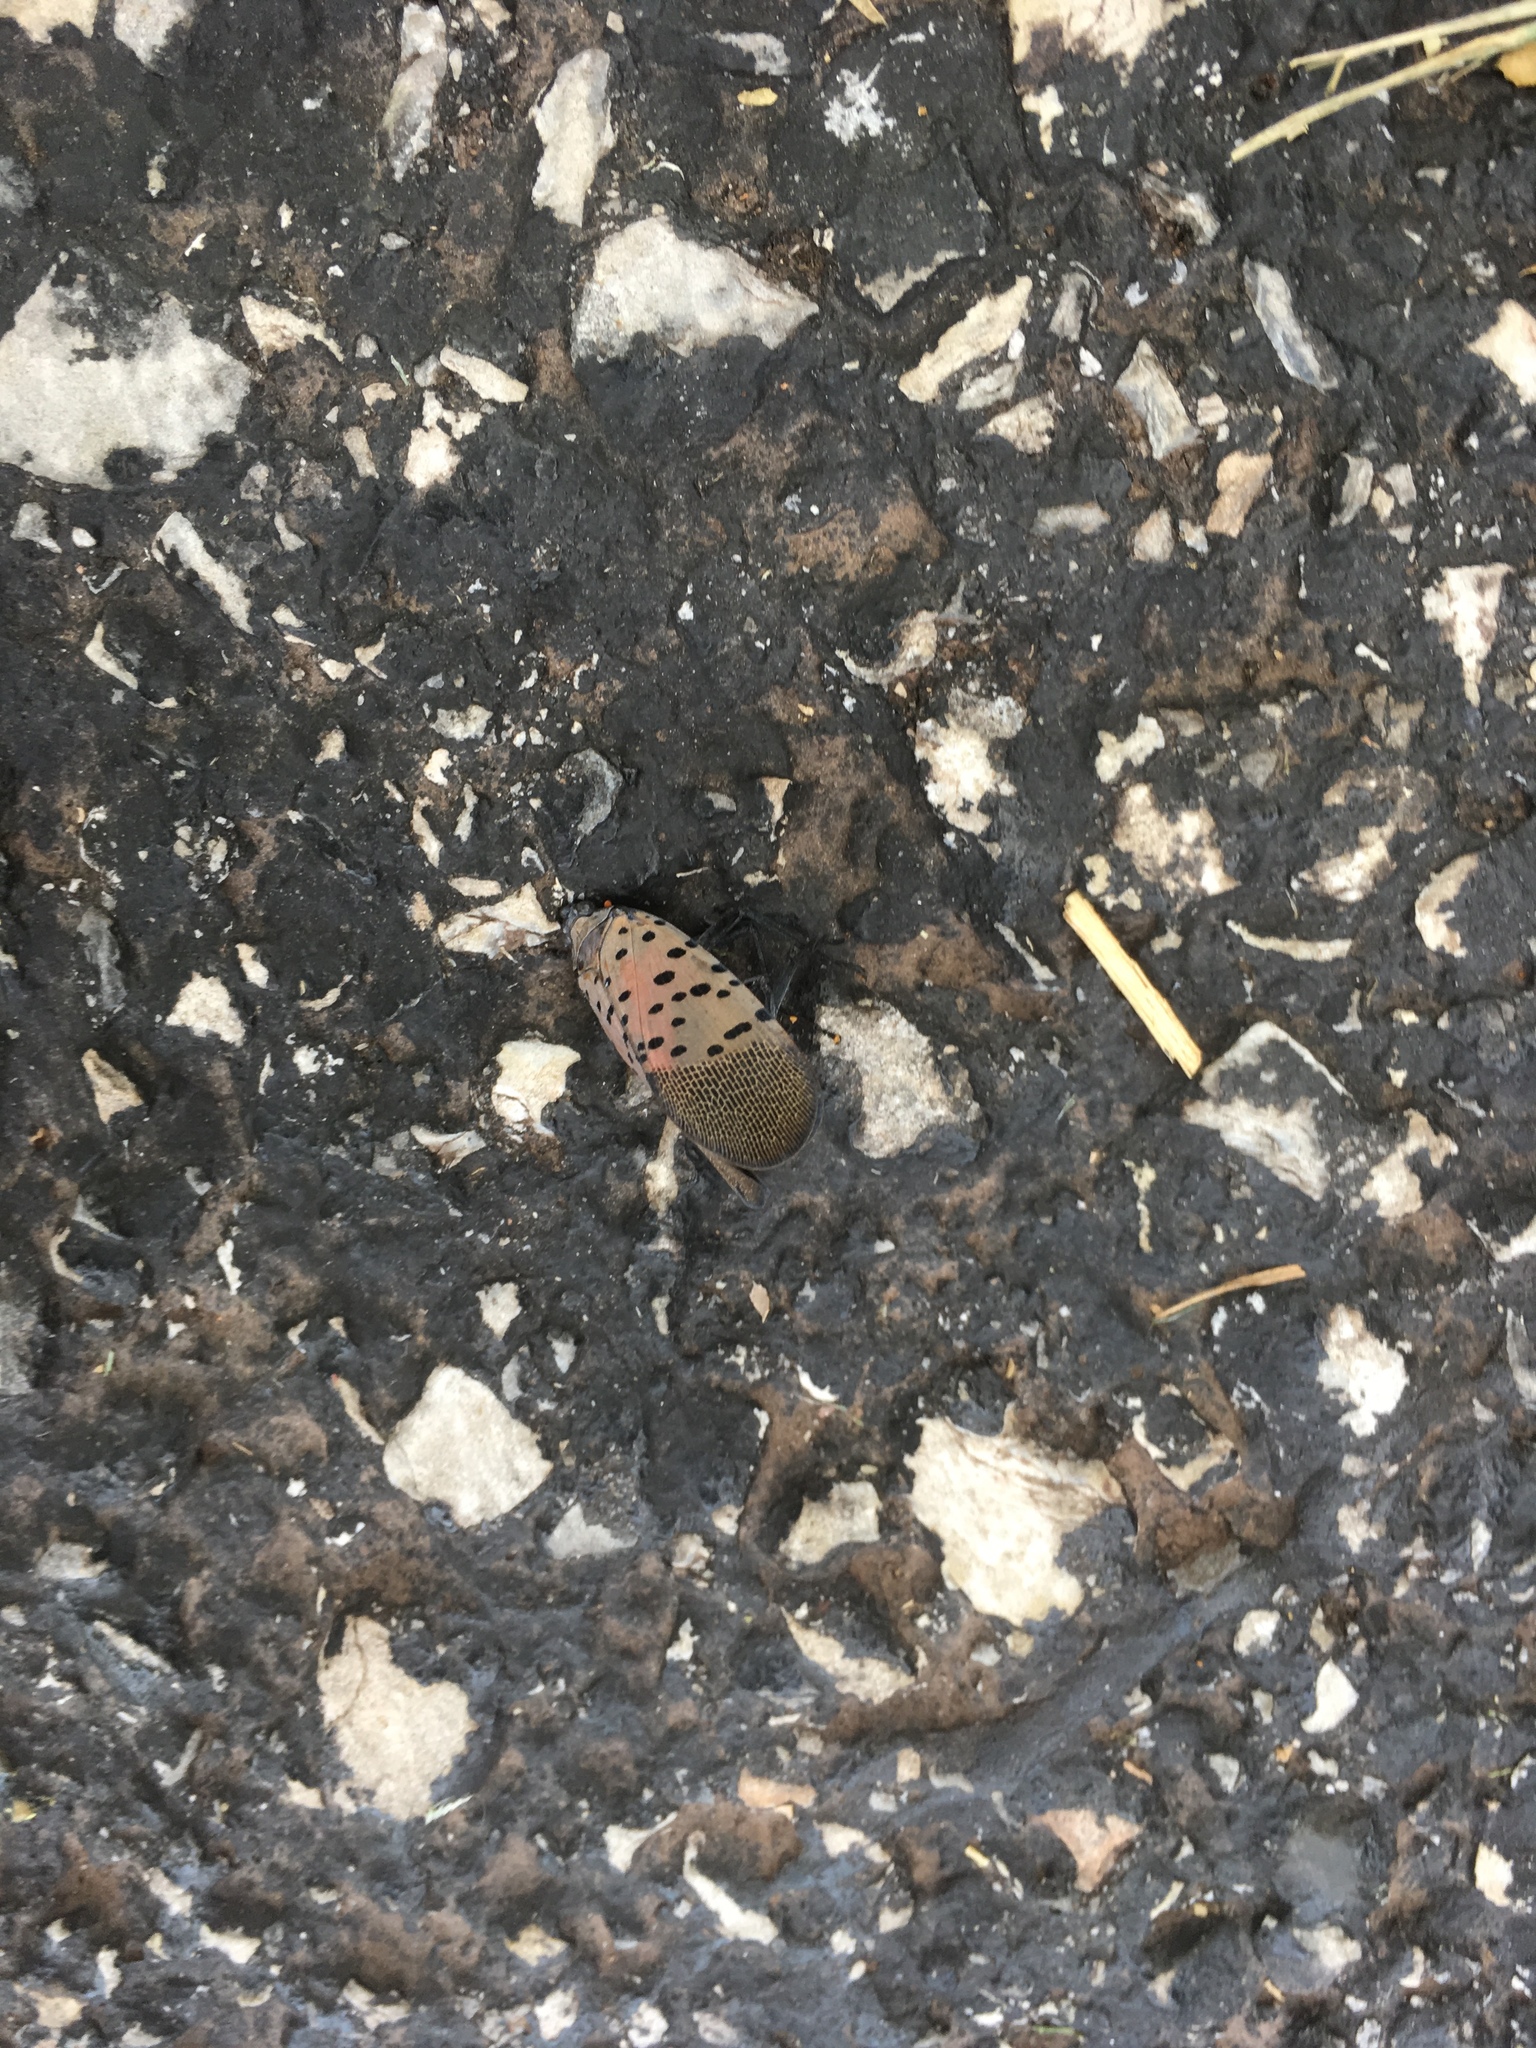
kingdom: Animalia
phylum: Arthropoda
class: Insecta
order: Hemiptera
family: Fulgoridae
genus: Lycorma
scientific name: Lycorma delicatula
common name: Spotted lanternfly
